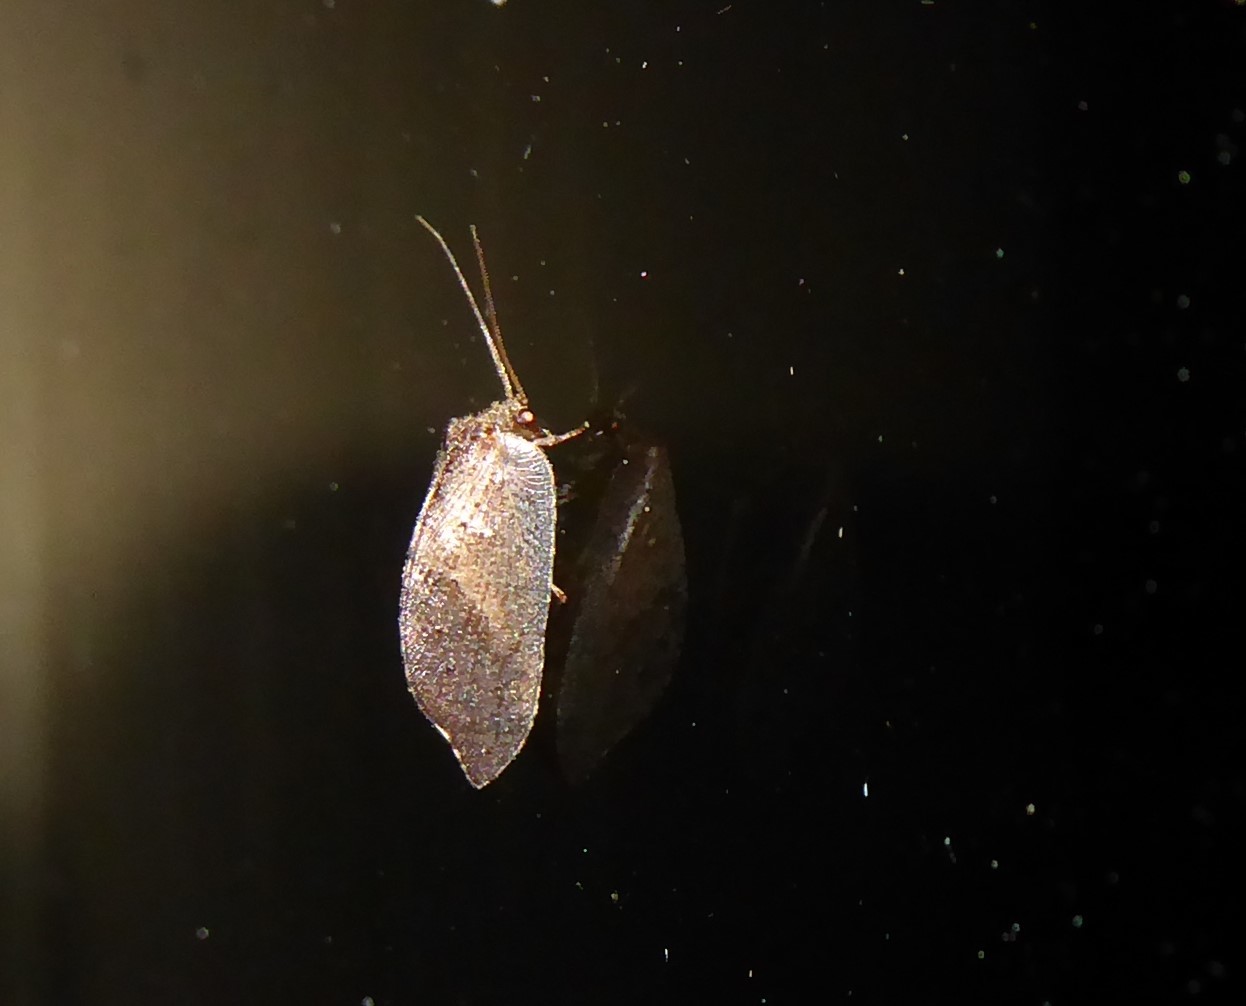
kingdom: Animalia
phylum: Arthropoda
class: Insecta
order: Neuroptera
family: Hemerobiidae
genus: Drepanacra
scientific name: Drepanacra binocula
